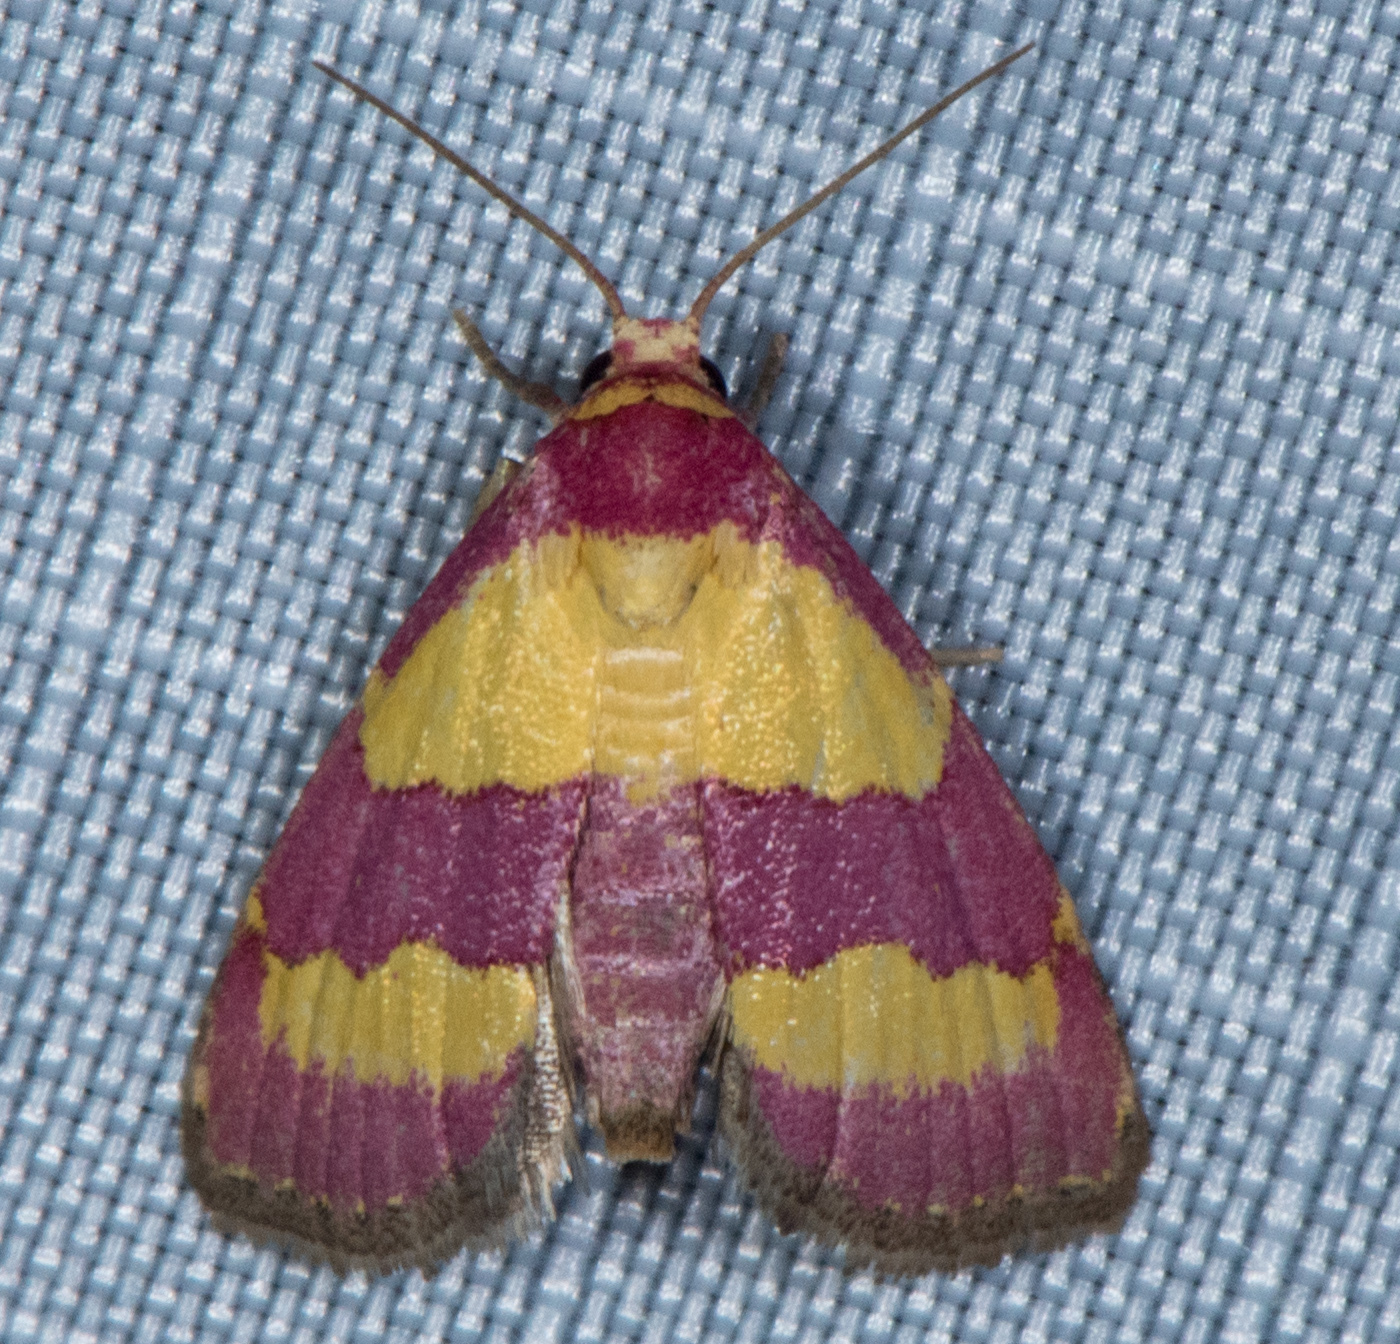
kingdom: Animalia
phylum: Arthropoda
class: Insecta
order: Lepidoptera
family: Noctuidae
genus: Phoenicophanta
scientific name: Phoenicophanta bicolor
